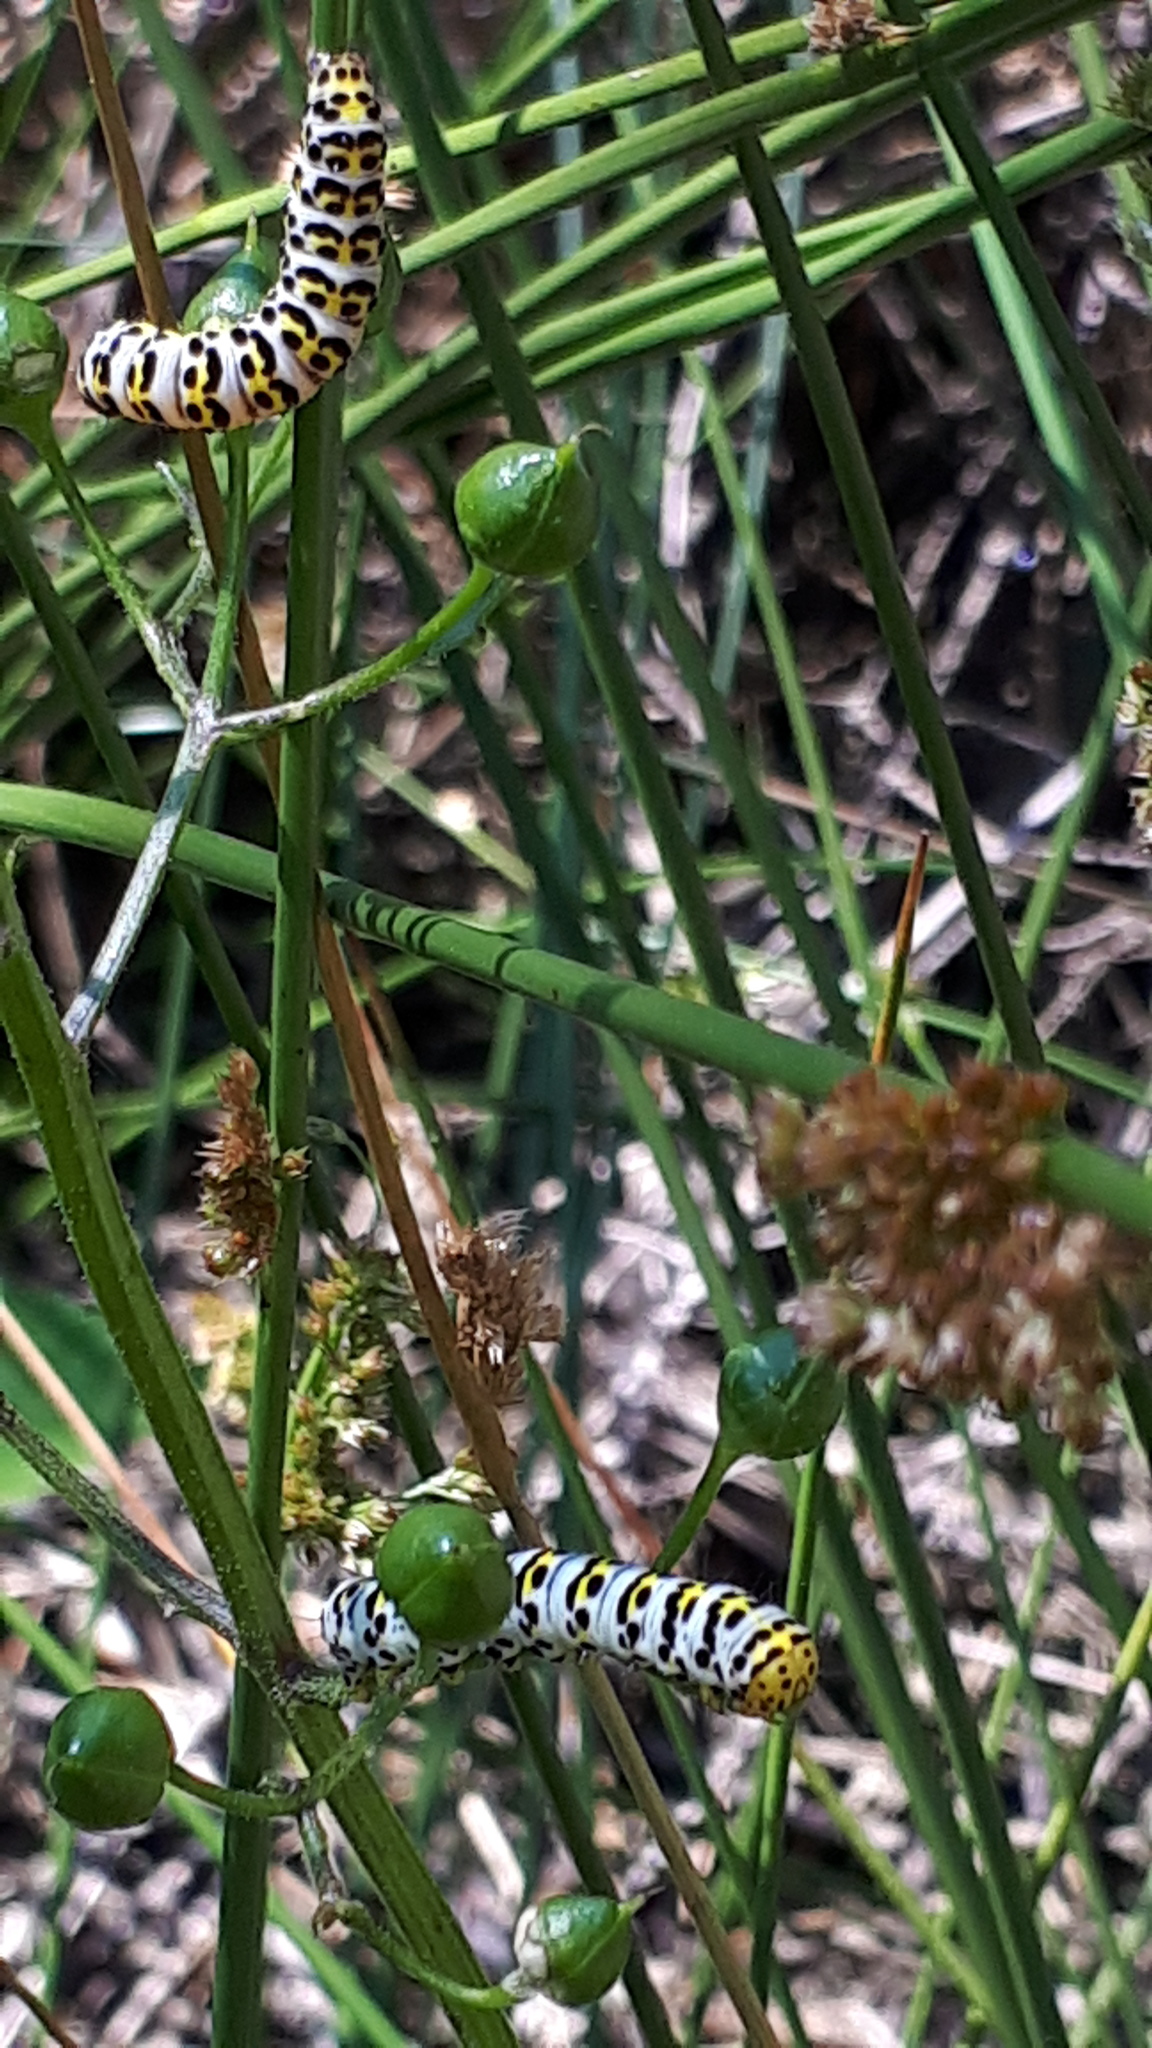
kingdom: Animalia
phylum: Arthropoda
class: Insecta
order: Lepidoptera
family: Noctuidae
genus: Shargacucullia
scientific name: Shargacucullia scrophulariae
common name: Water betony
